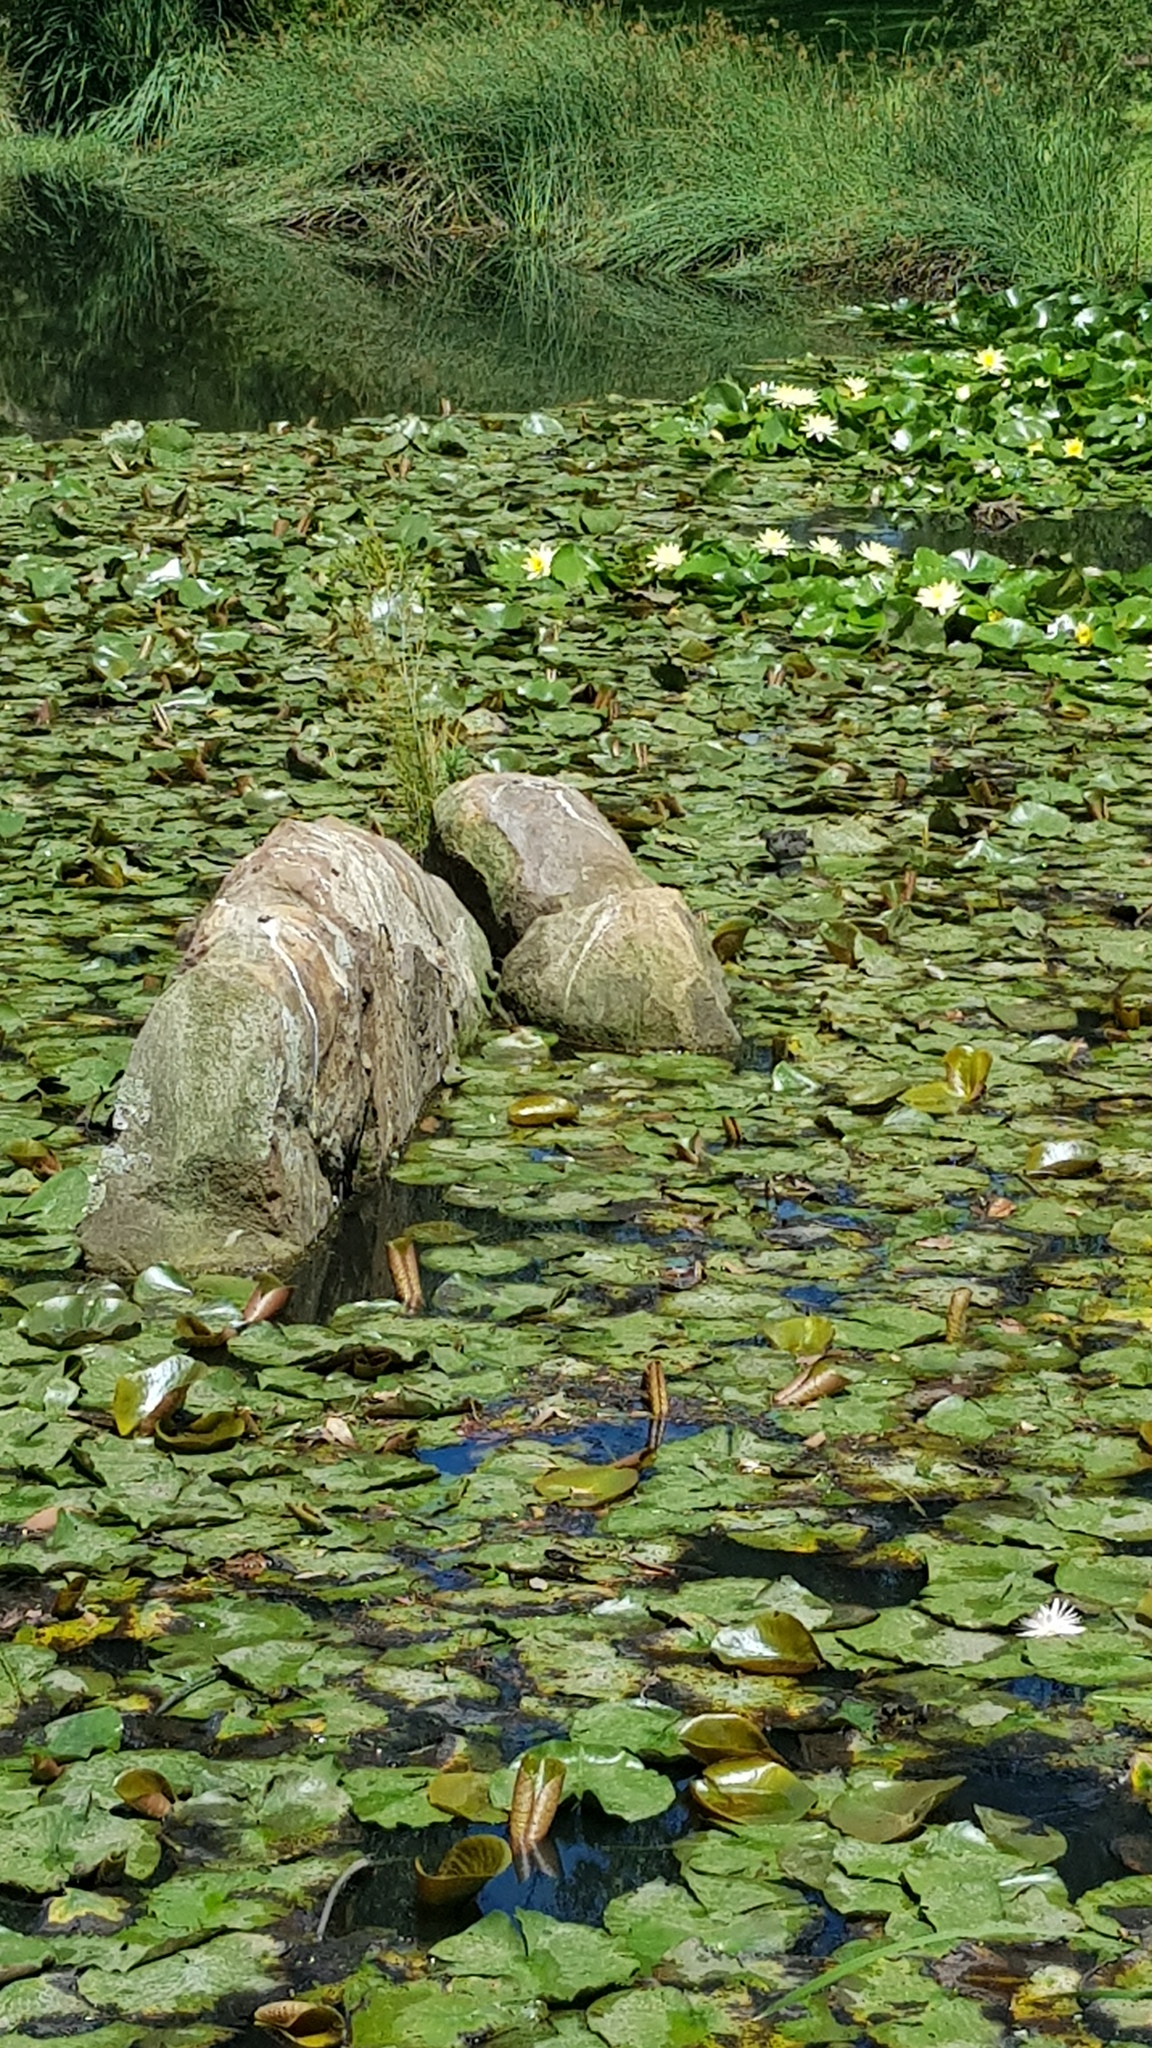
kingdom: Animalia
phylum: Chordata
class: Aves
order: Gruiformes
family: Rallidae
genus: Gallinula
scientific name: Gallinula tenebrosa
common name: Dusky moorhen
